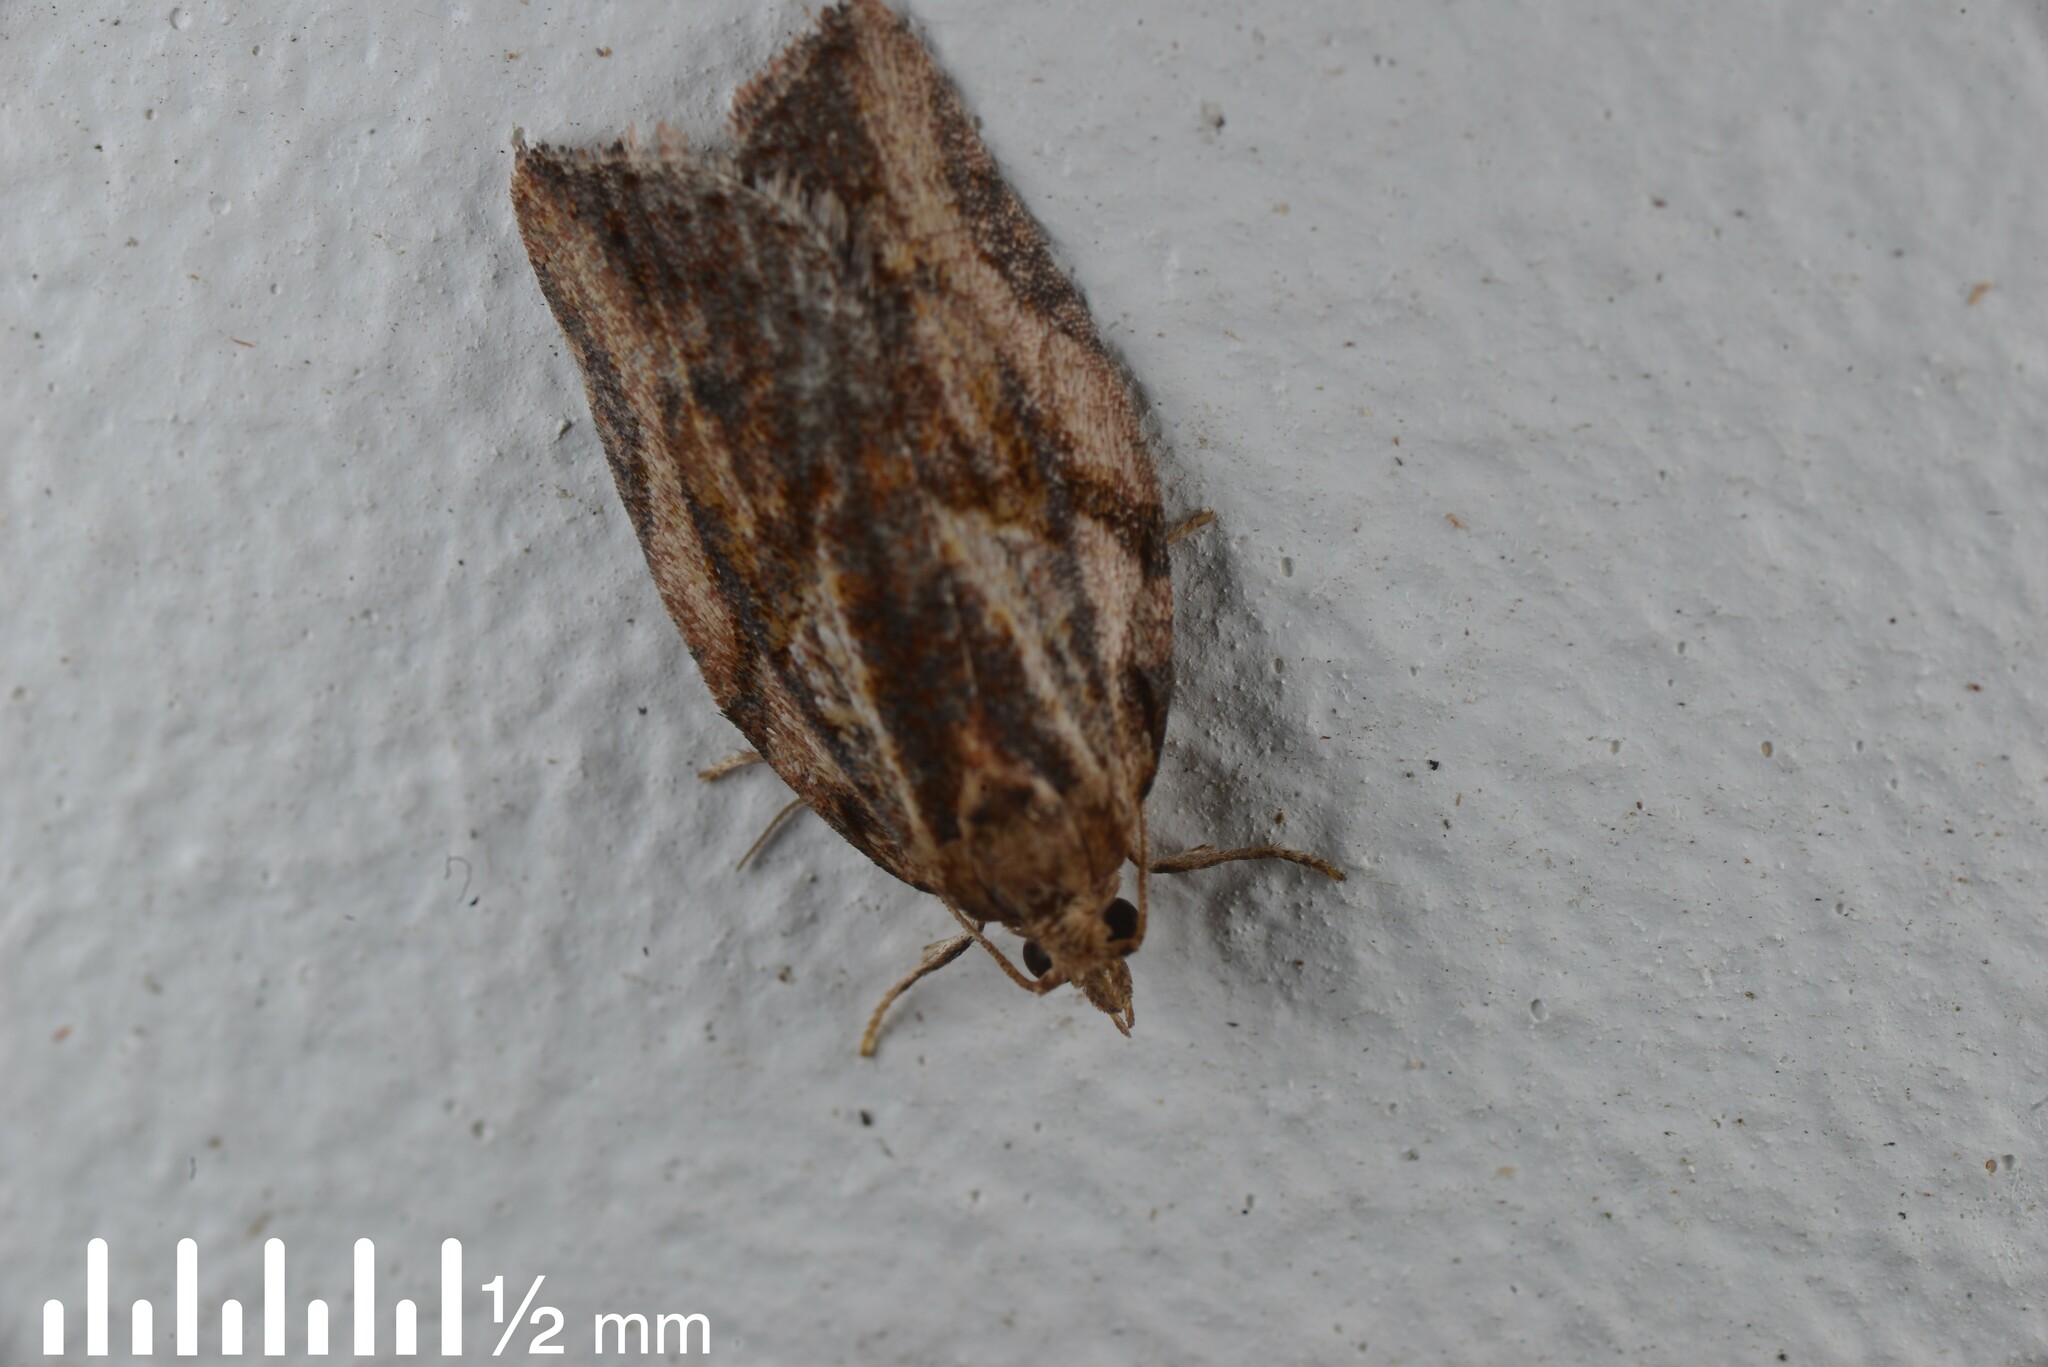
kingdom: Animalia
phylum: Arthropoda
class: Insecta
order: Lepidoptera
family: Tortricidae
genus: Epiphyas
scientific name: Epiphyas postvittana
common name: Light brown apple moth
